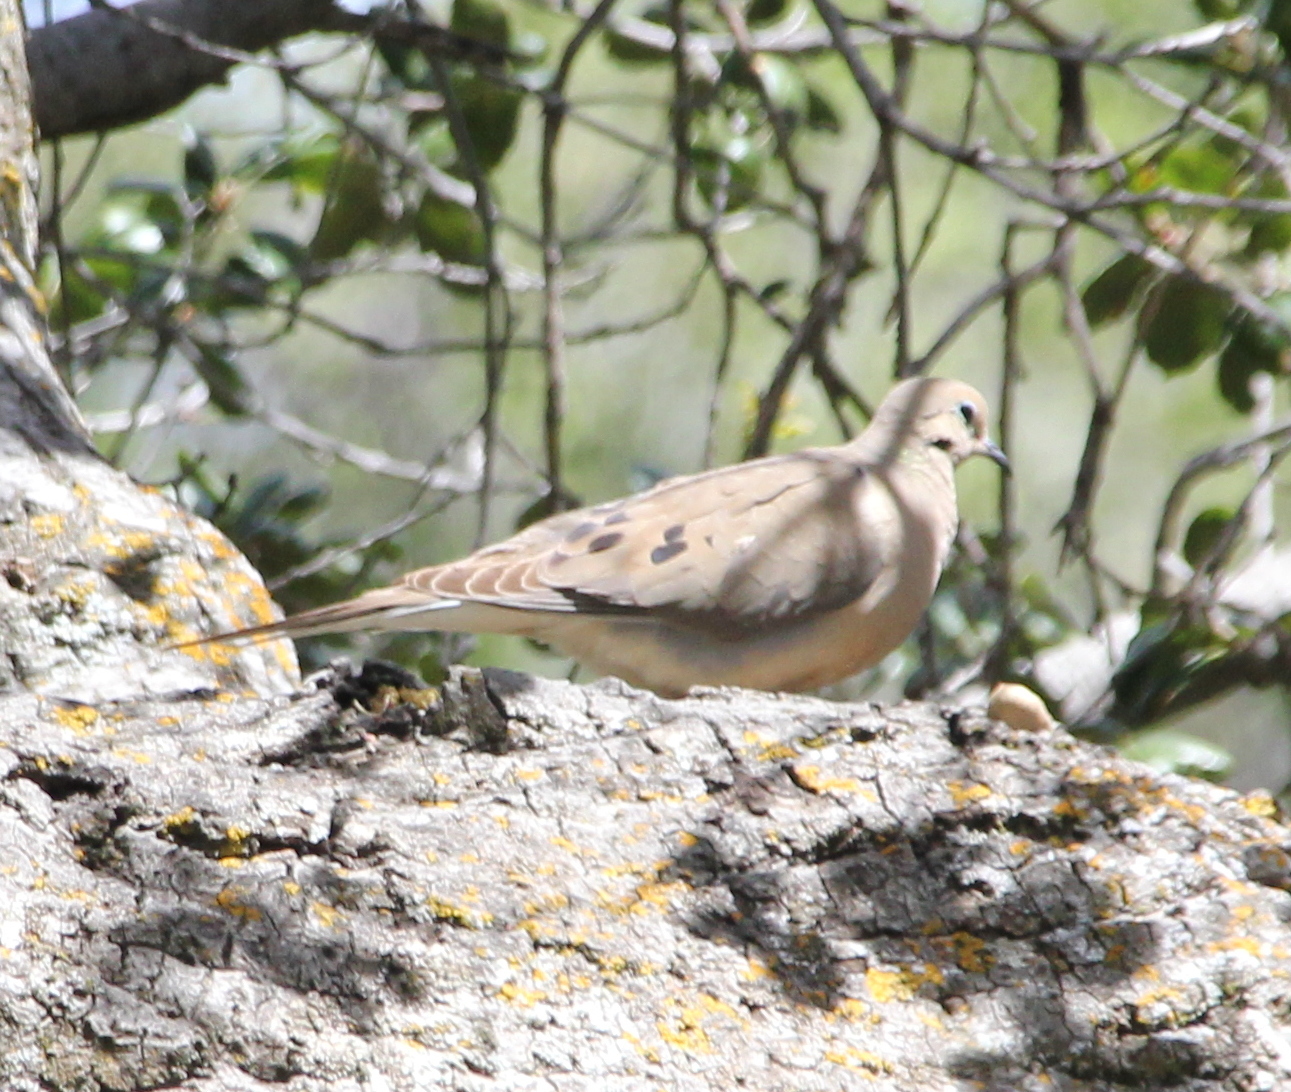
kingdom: Animalia
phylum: Chordata
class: Aves
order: Columbiformes
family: Columbidae
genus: Zenaida
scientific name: Zenaida macroura
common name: Mourning dove
